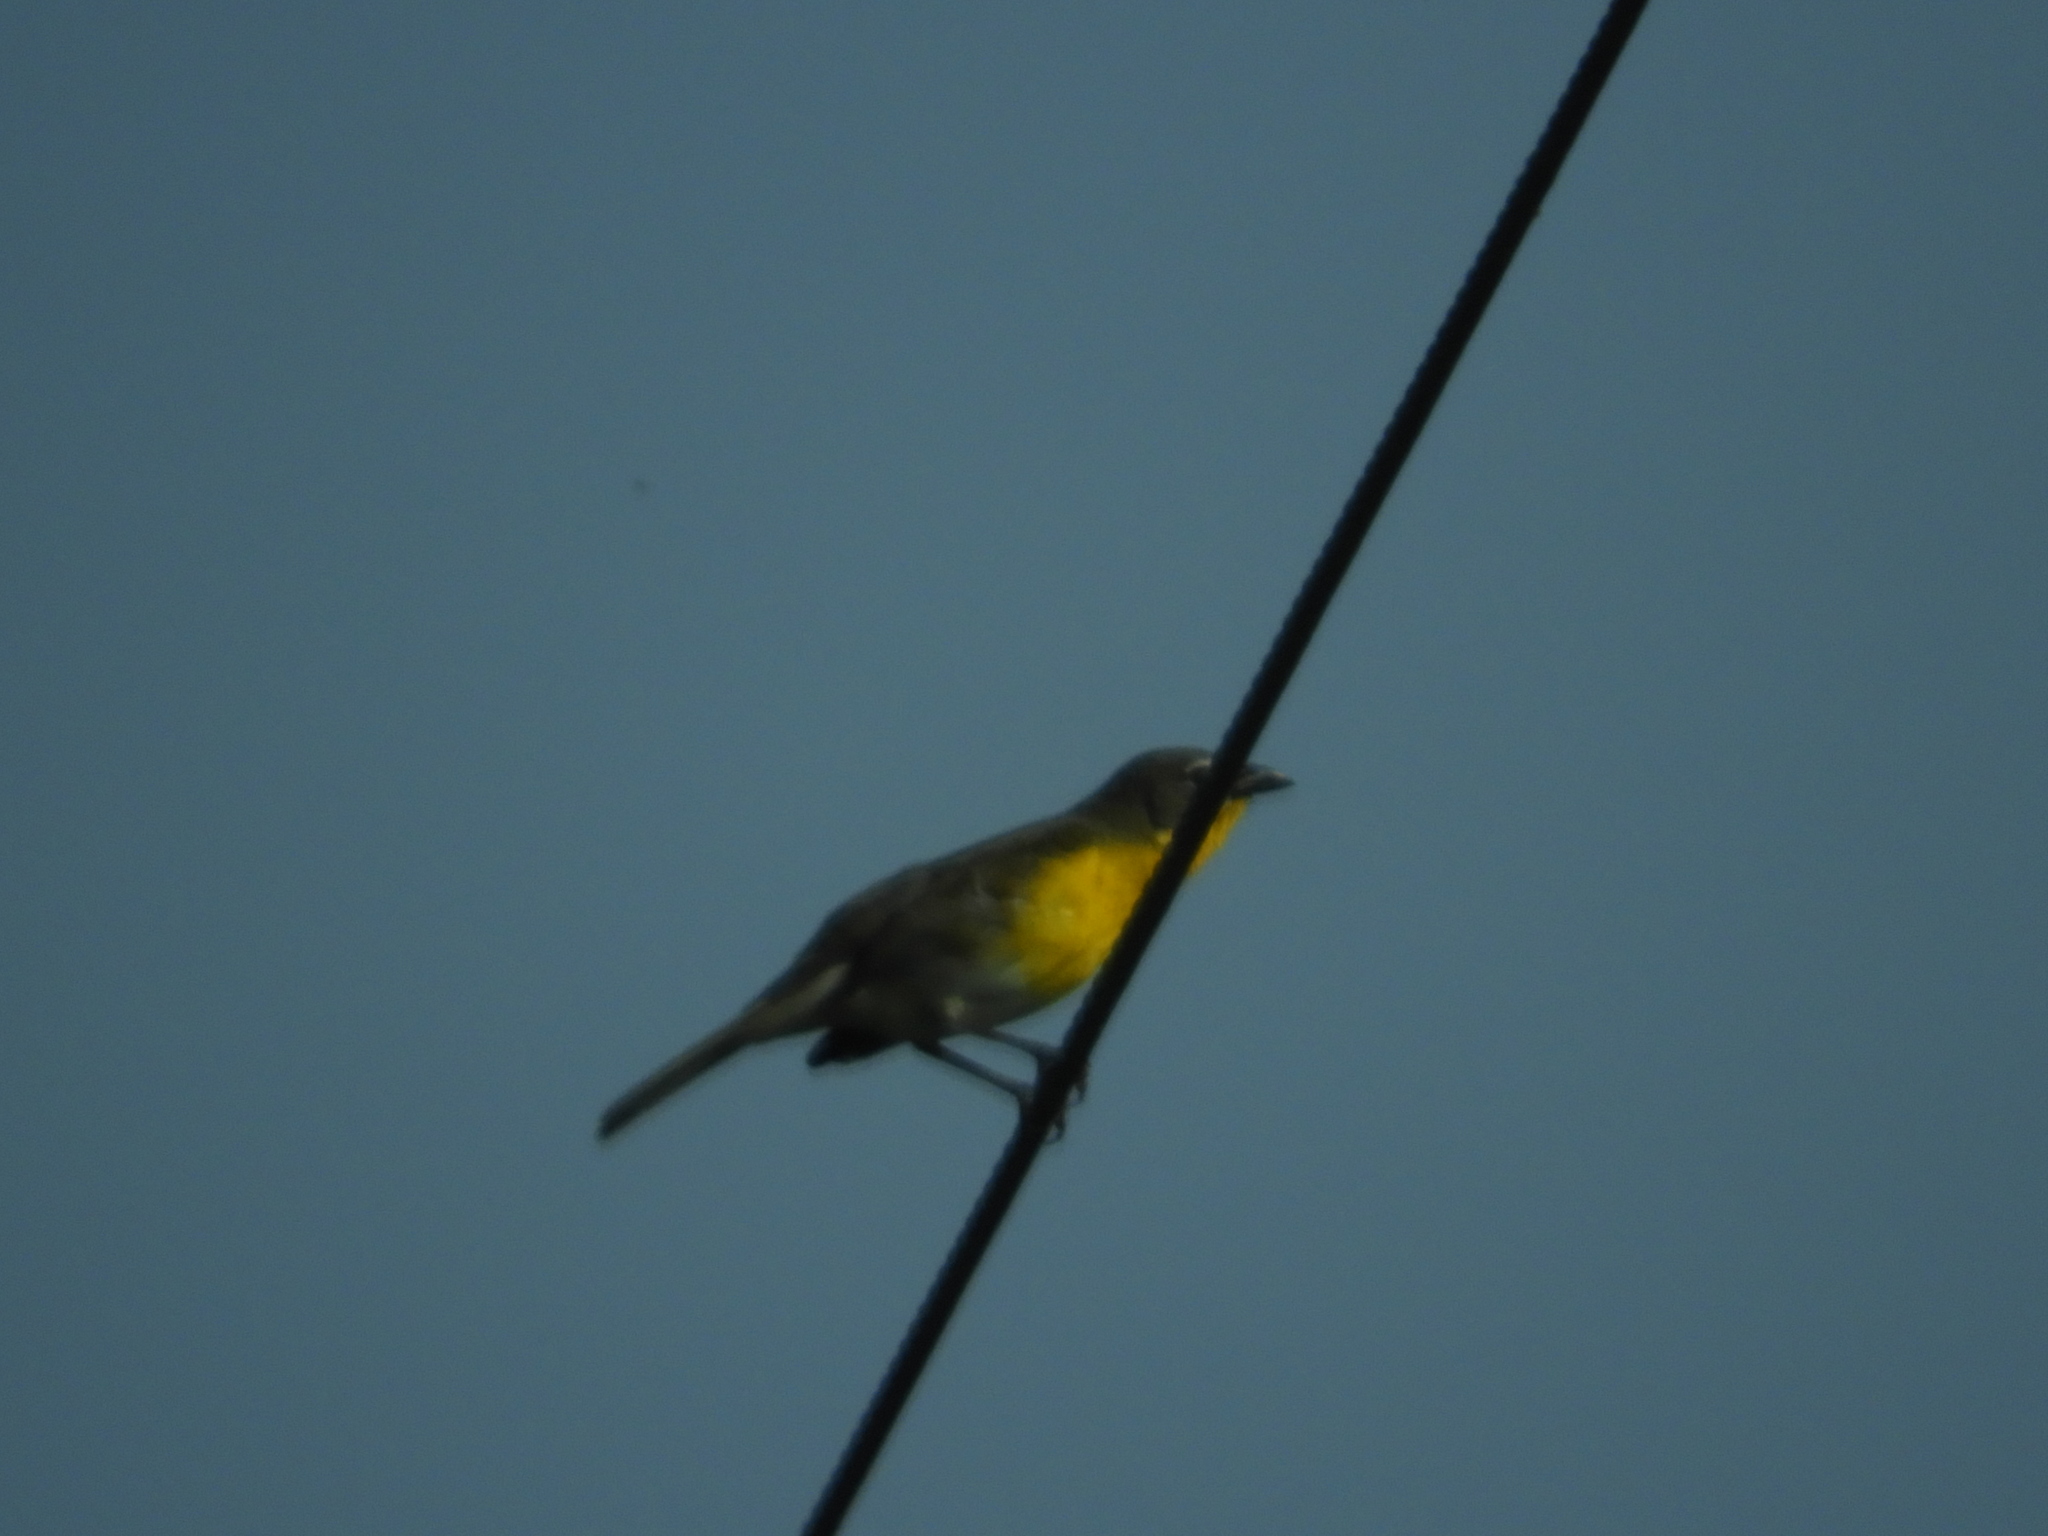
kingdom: Animalia
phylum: Chordata
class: Aves
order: Passeriformes
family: Parulidae
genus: Icteria
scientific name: Icteria virens
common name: Yellow-breasted chat
